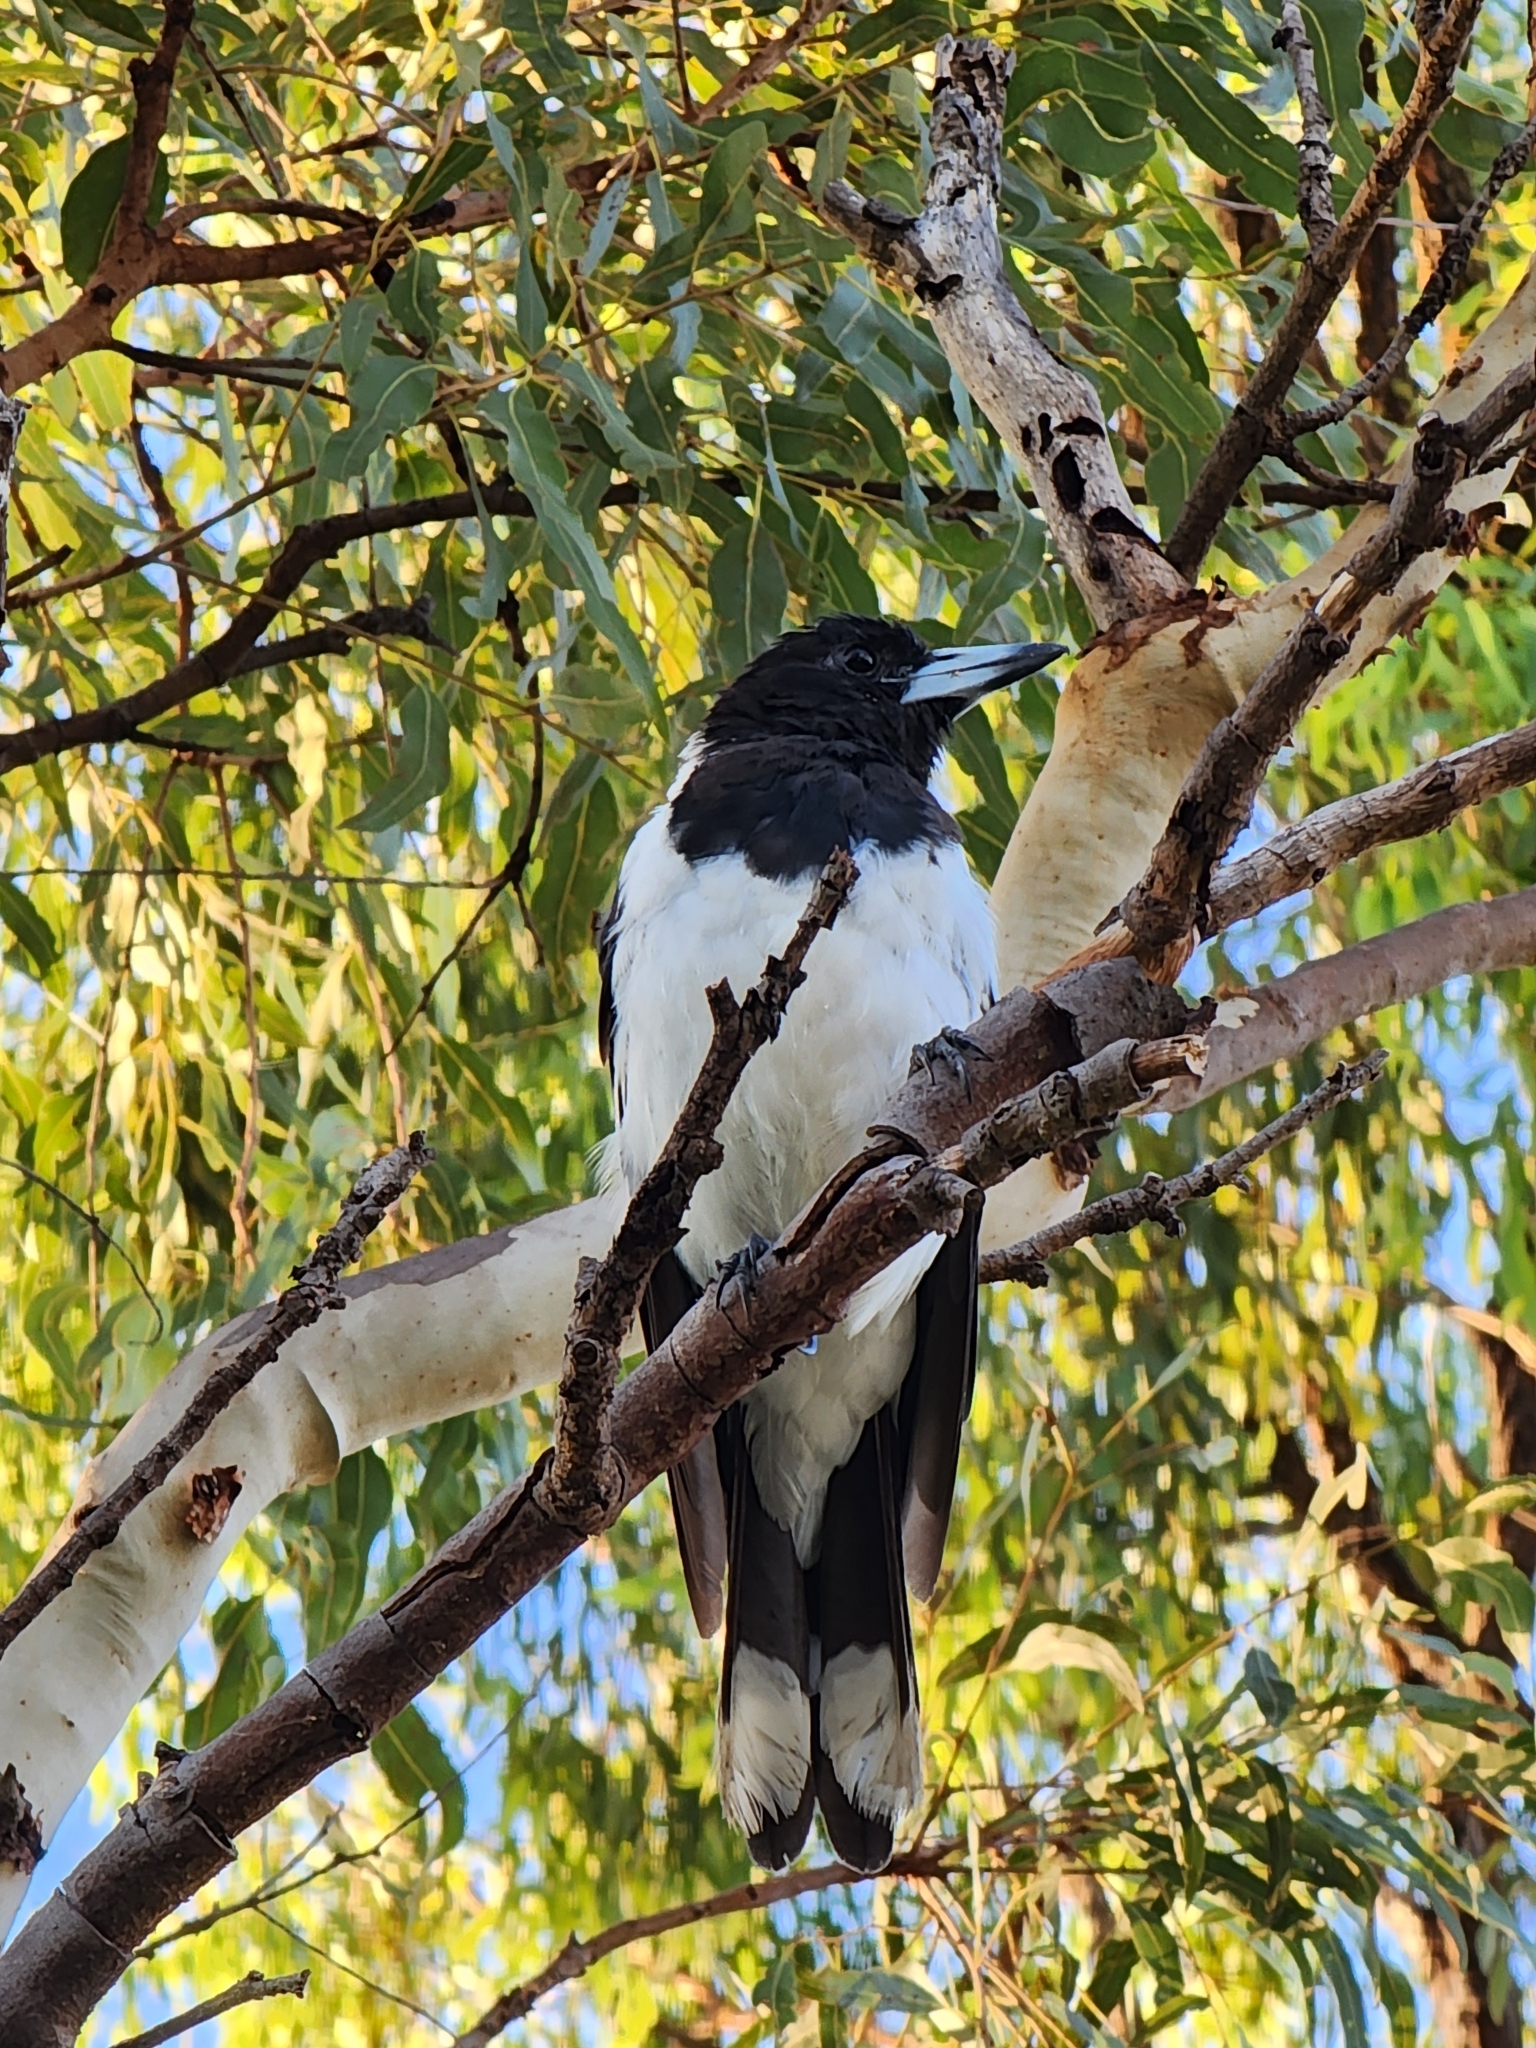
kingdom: Animalia
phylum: Chordata
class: Aves
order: Passeriformes
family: Cracticidae
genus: Cracticus
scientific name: Cracticus nigrogularis
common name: Pied butcherbird
